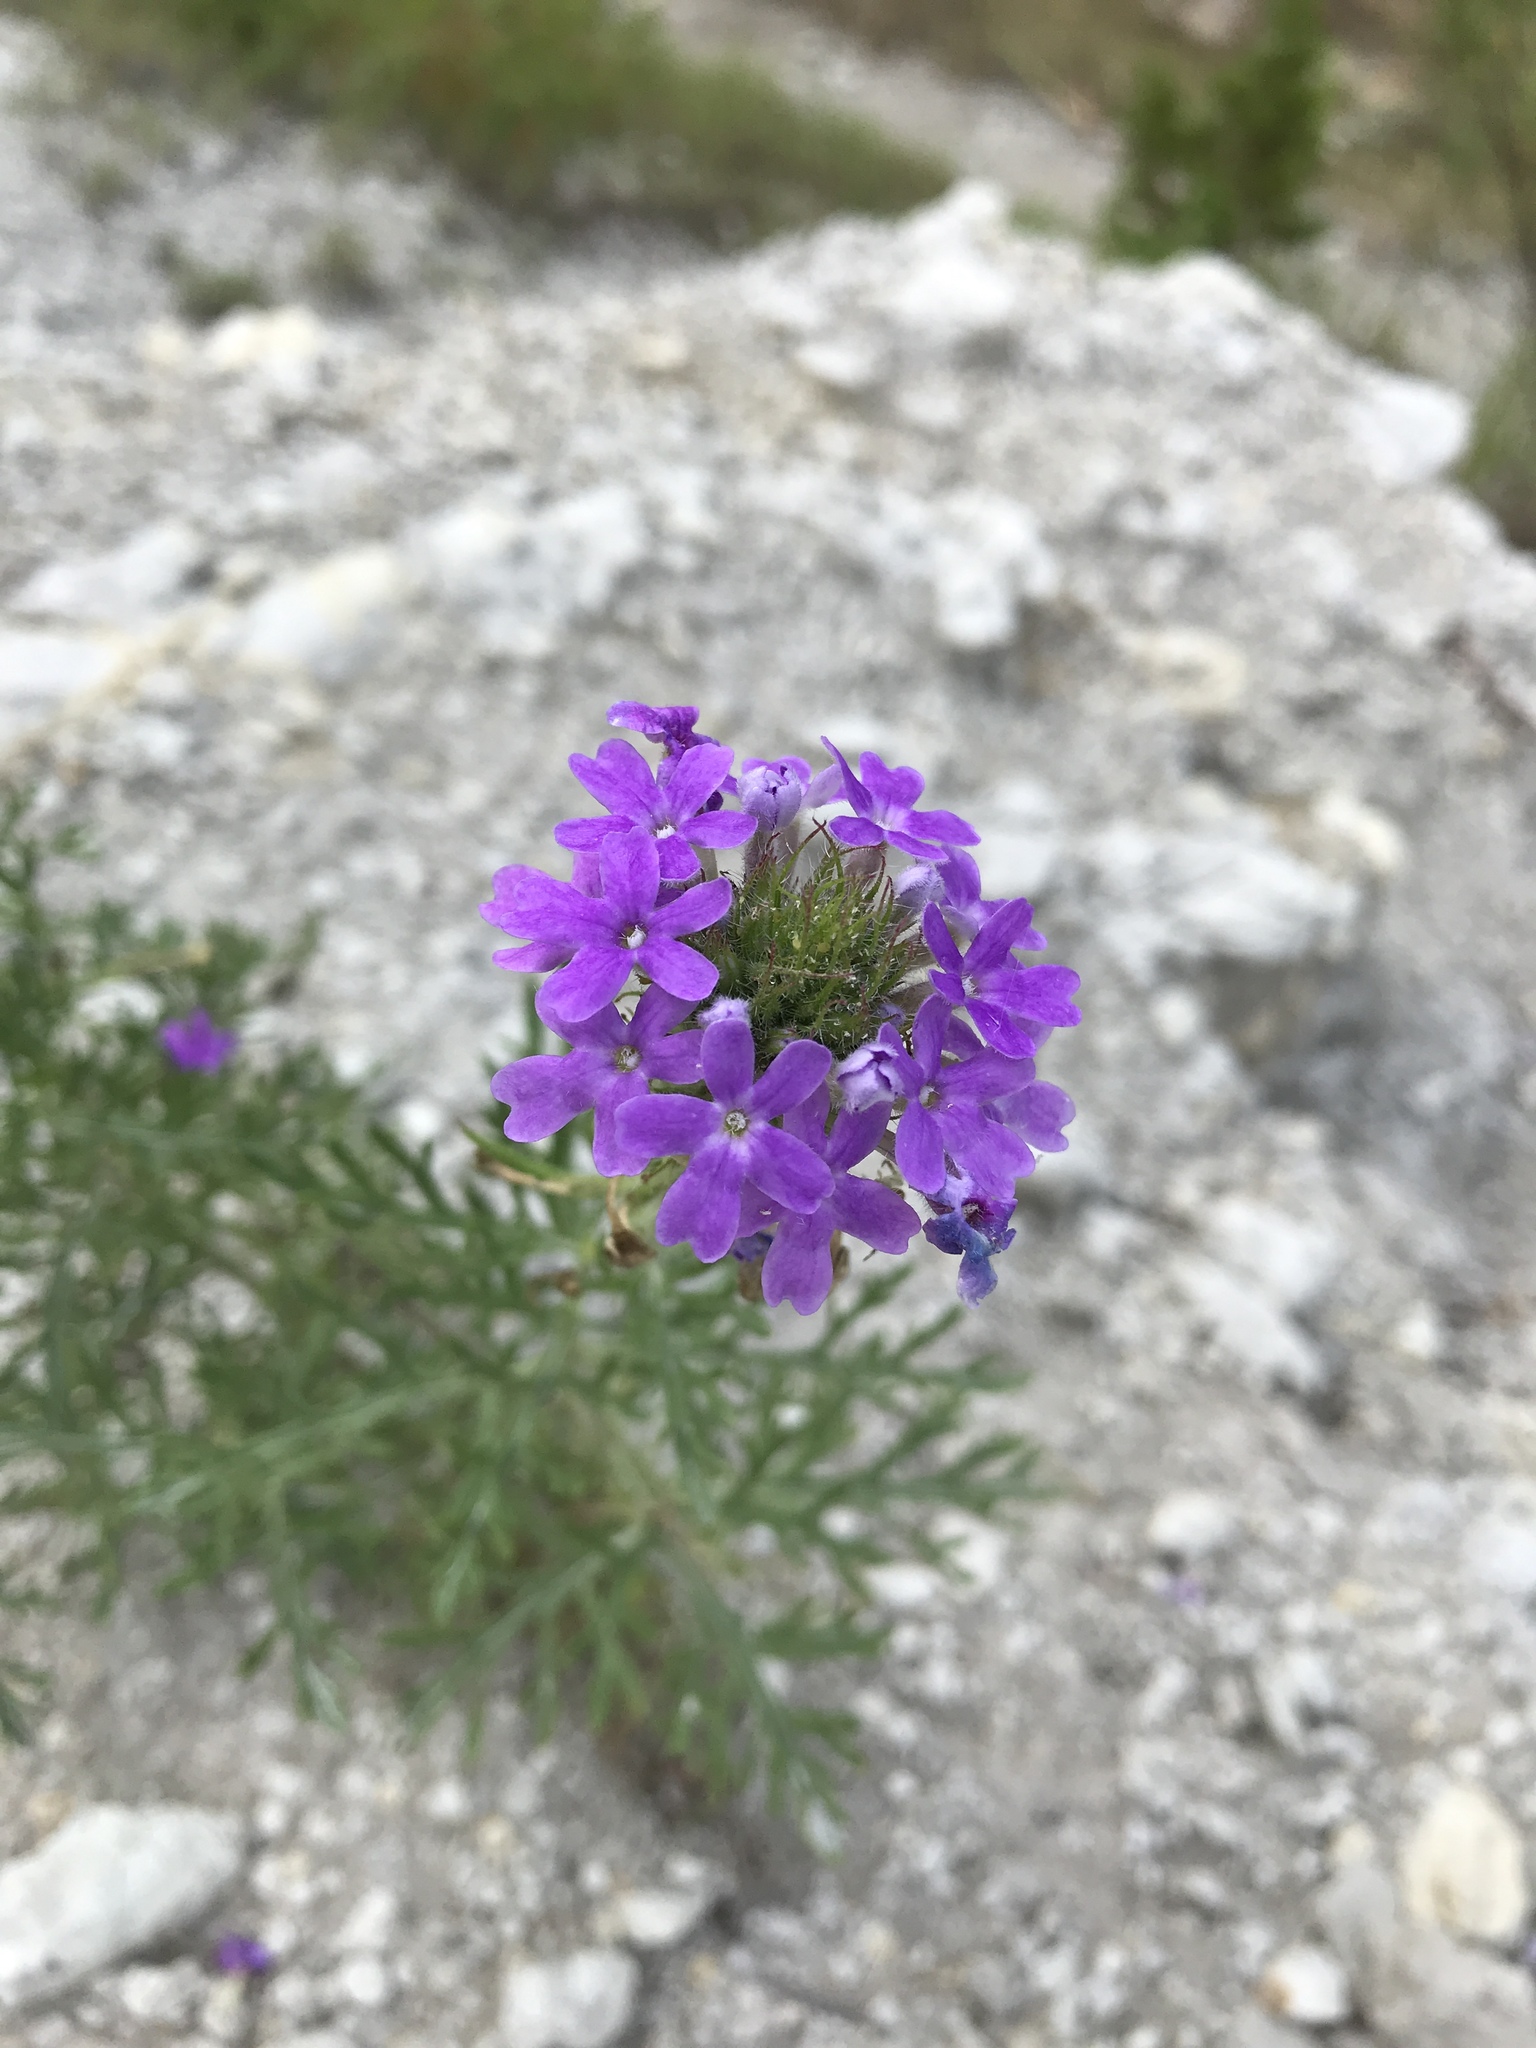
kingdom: Plantae
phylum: Tracheophyta
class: Magnoliopsida
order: Lamiales
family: Verbenaceae
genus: Verbena
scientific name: Verbena bipinnatifida
